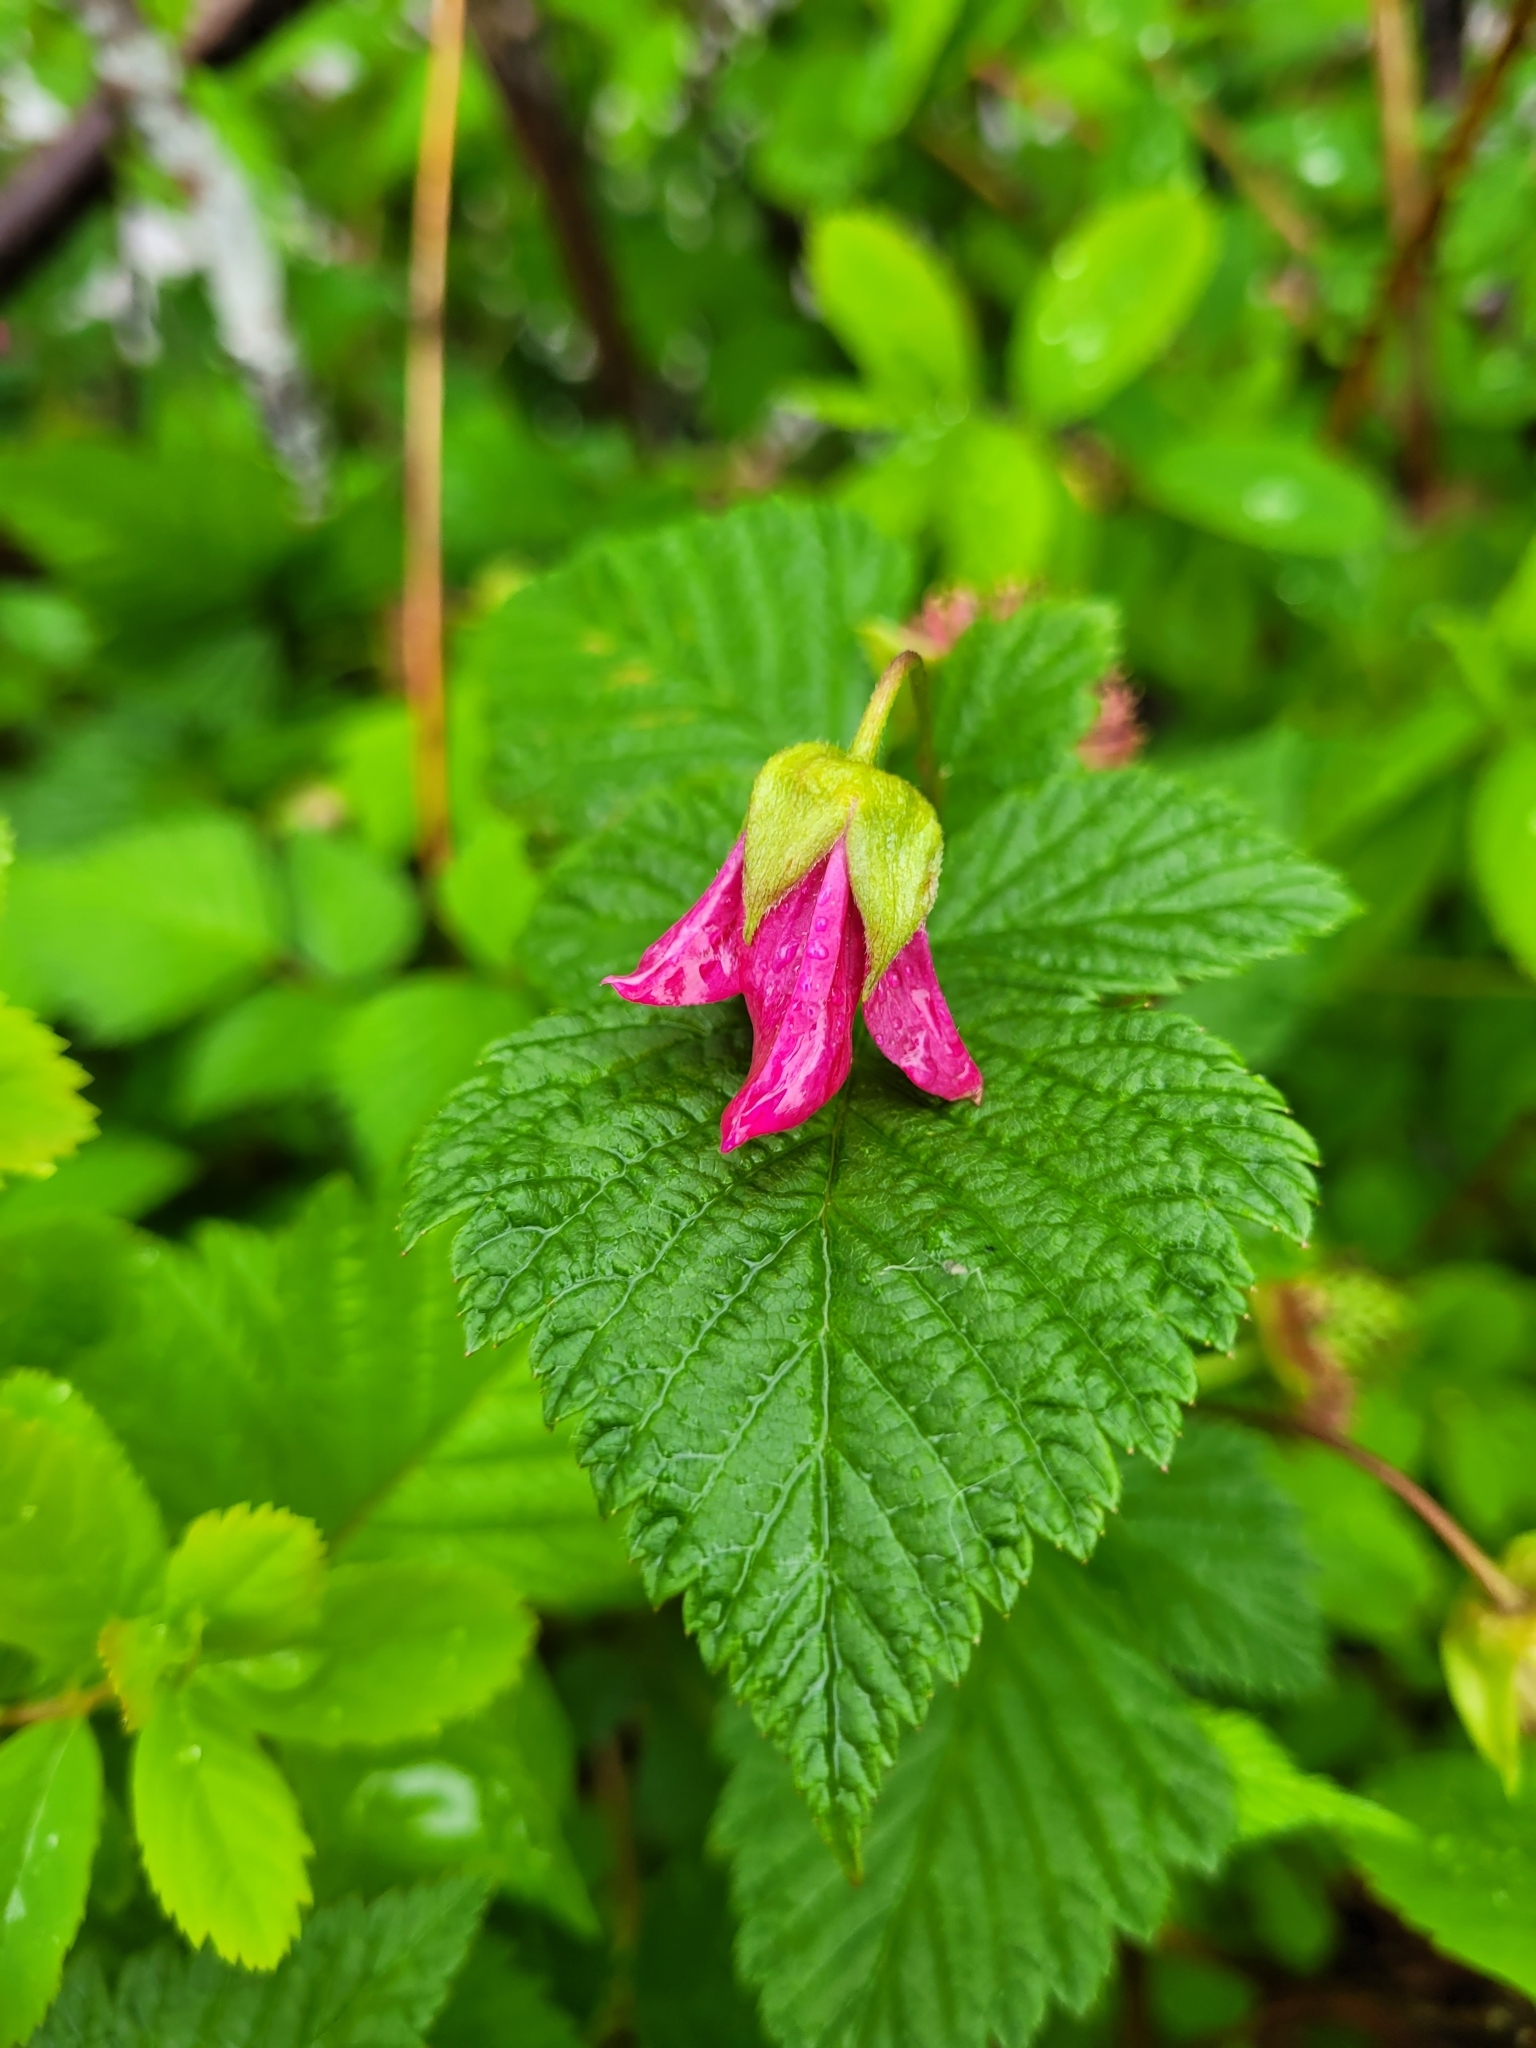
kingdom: Plantae
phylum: Tracheophyta
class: Magnoliopsida
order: Rosales
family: Rosaceae
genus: Rubus
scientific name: Rubus spectabilis
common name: Salmonberry
